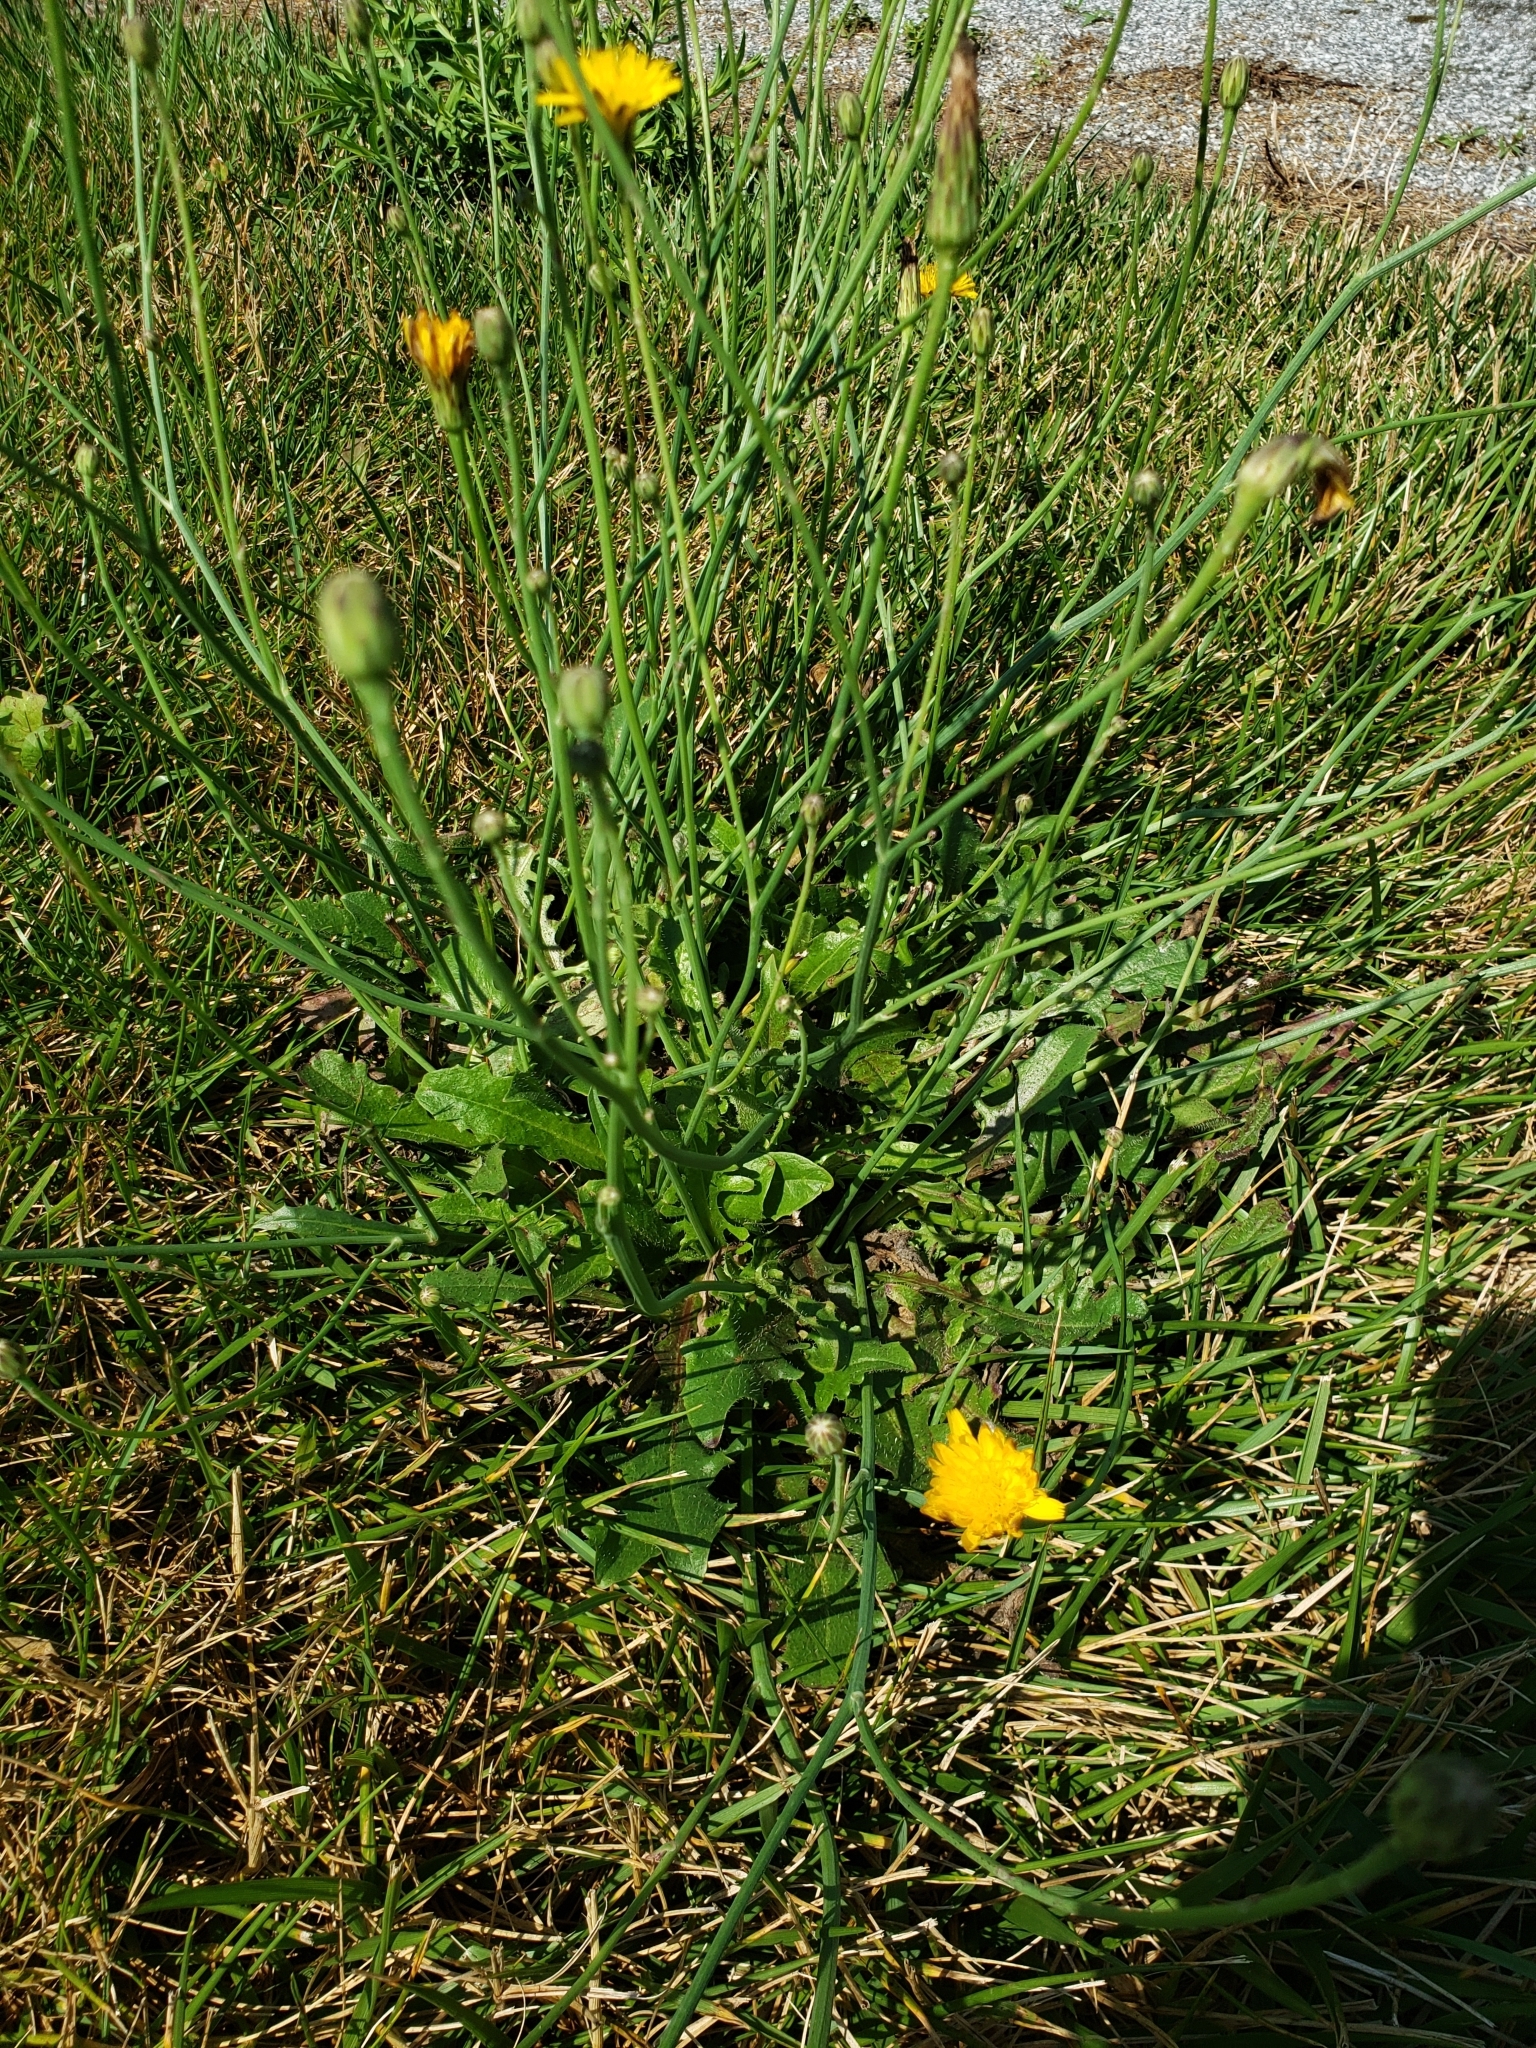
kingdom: Plantae
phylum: Tracheophyta
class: Magnoliopsida
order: Asterales
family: Asteraceae
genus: Hypochaeris
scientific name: Hypochaeris radicata
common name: Flatweed
